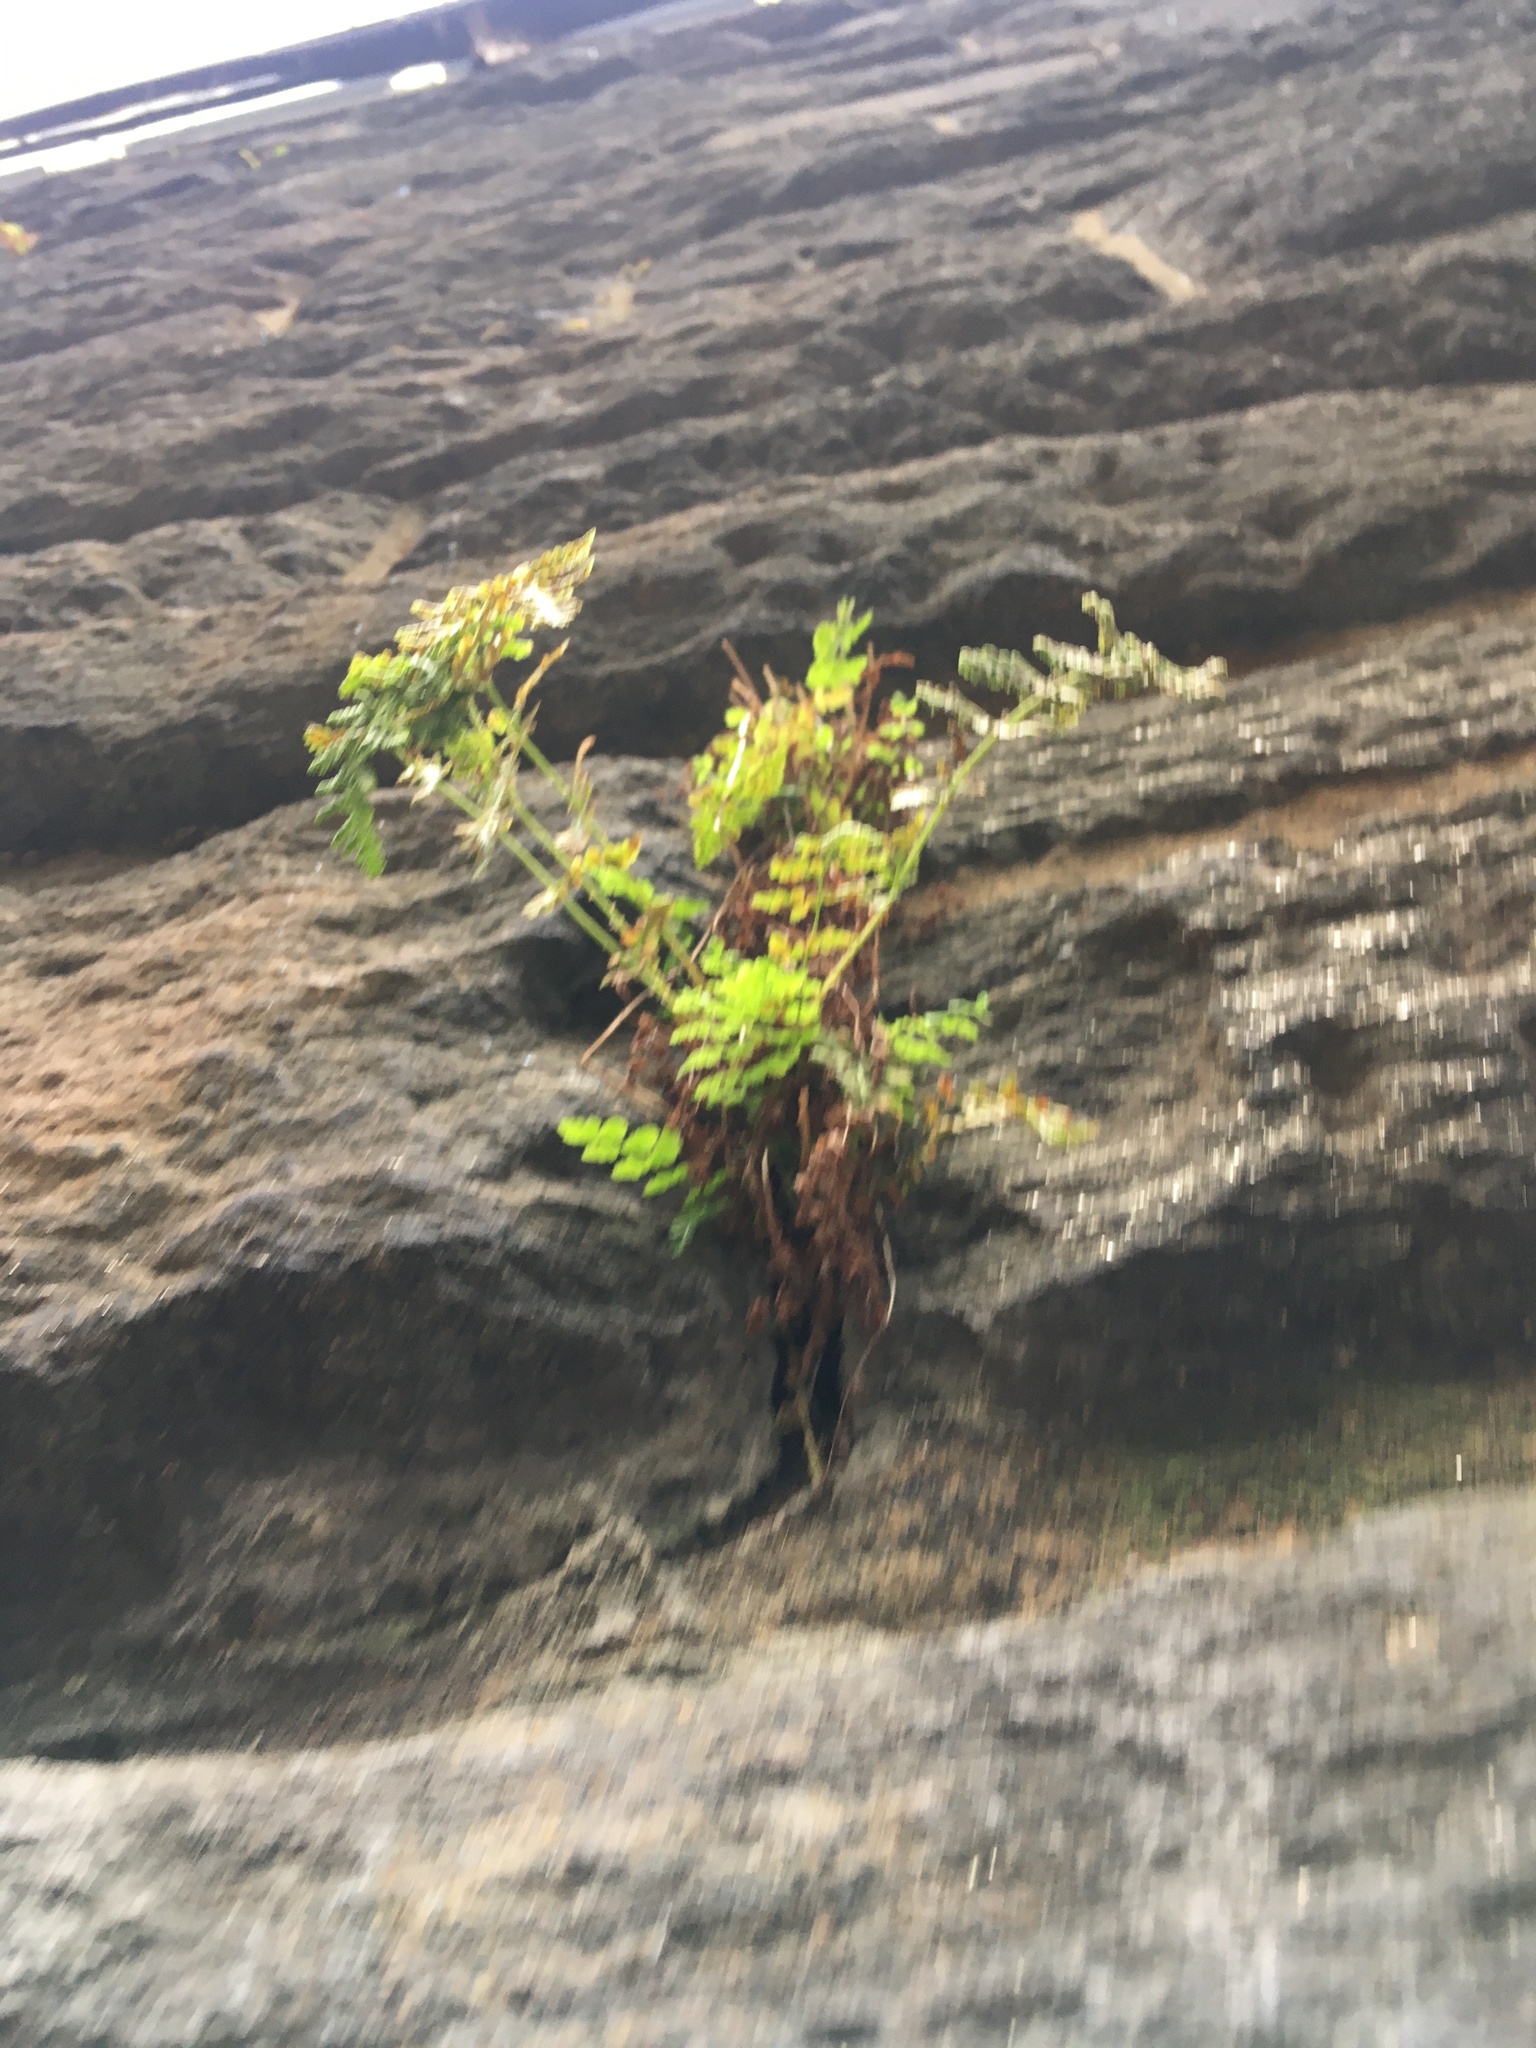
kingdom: Plantae
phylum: Tracheophyta
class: Polypodiopsida
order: Polypodiales
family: Woodsiaceae
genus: Physematium
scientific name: Physematium obtusum
